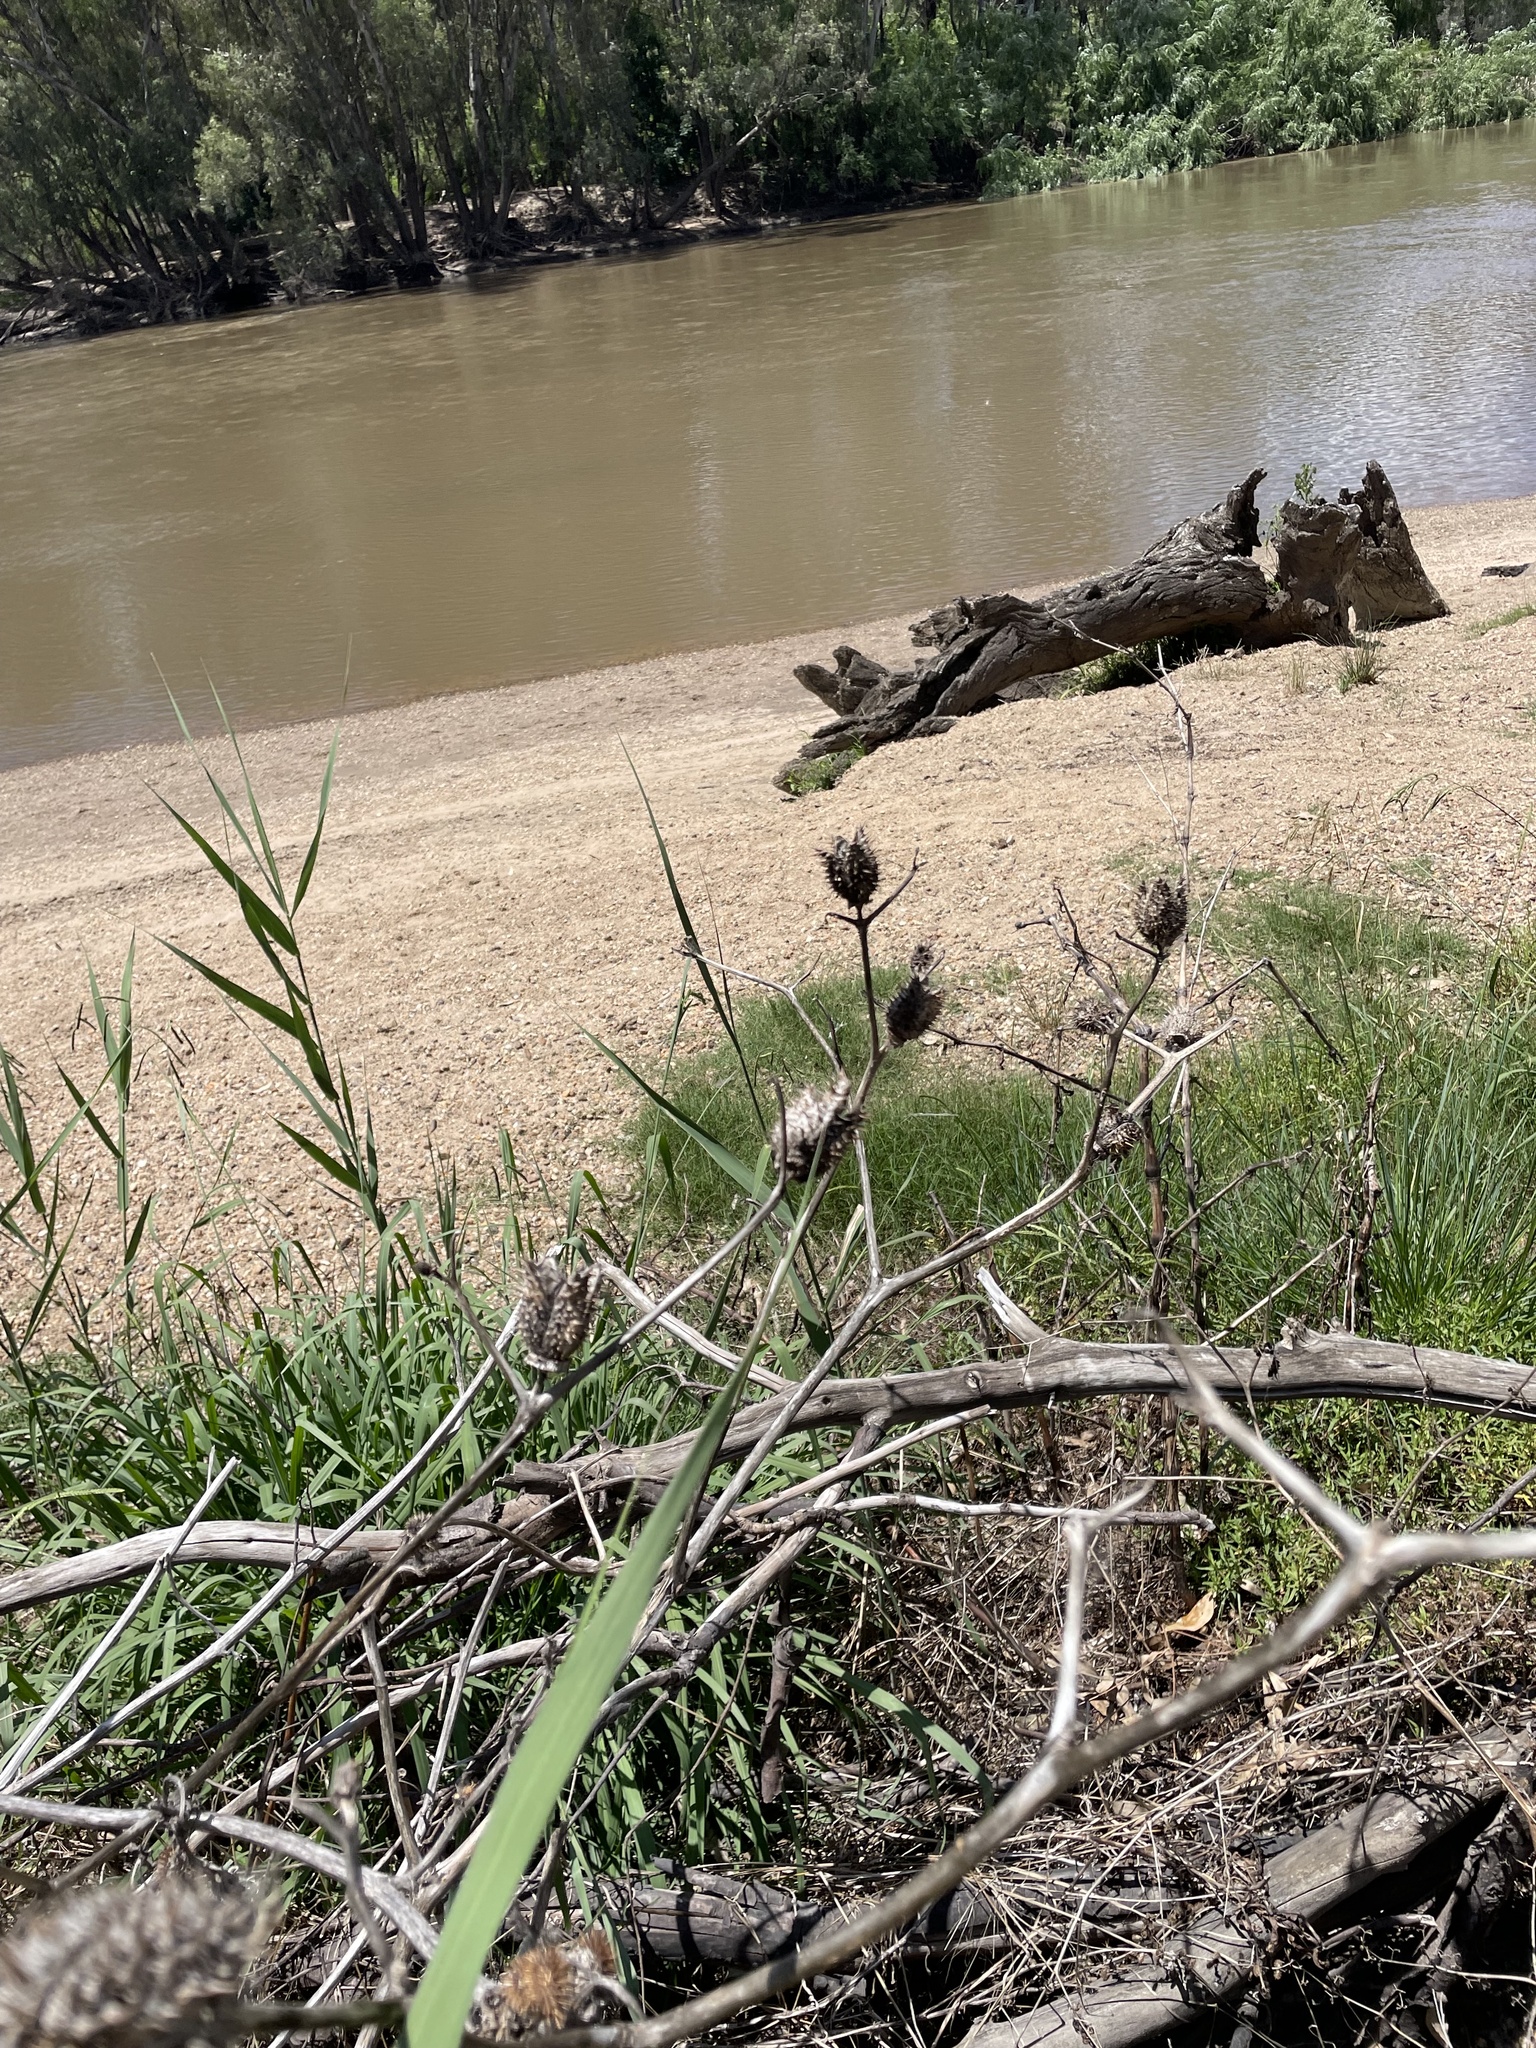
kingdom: Plantae
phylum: Tracheophyta
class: Magnoliopsida
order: Solanales
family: Solanaceae
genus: Datura
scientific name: Datura stramonium
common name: Thorn-apple
